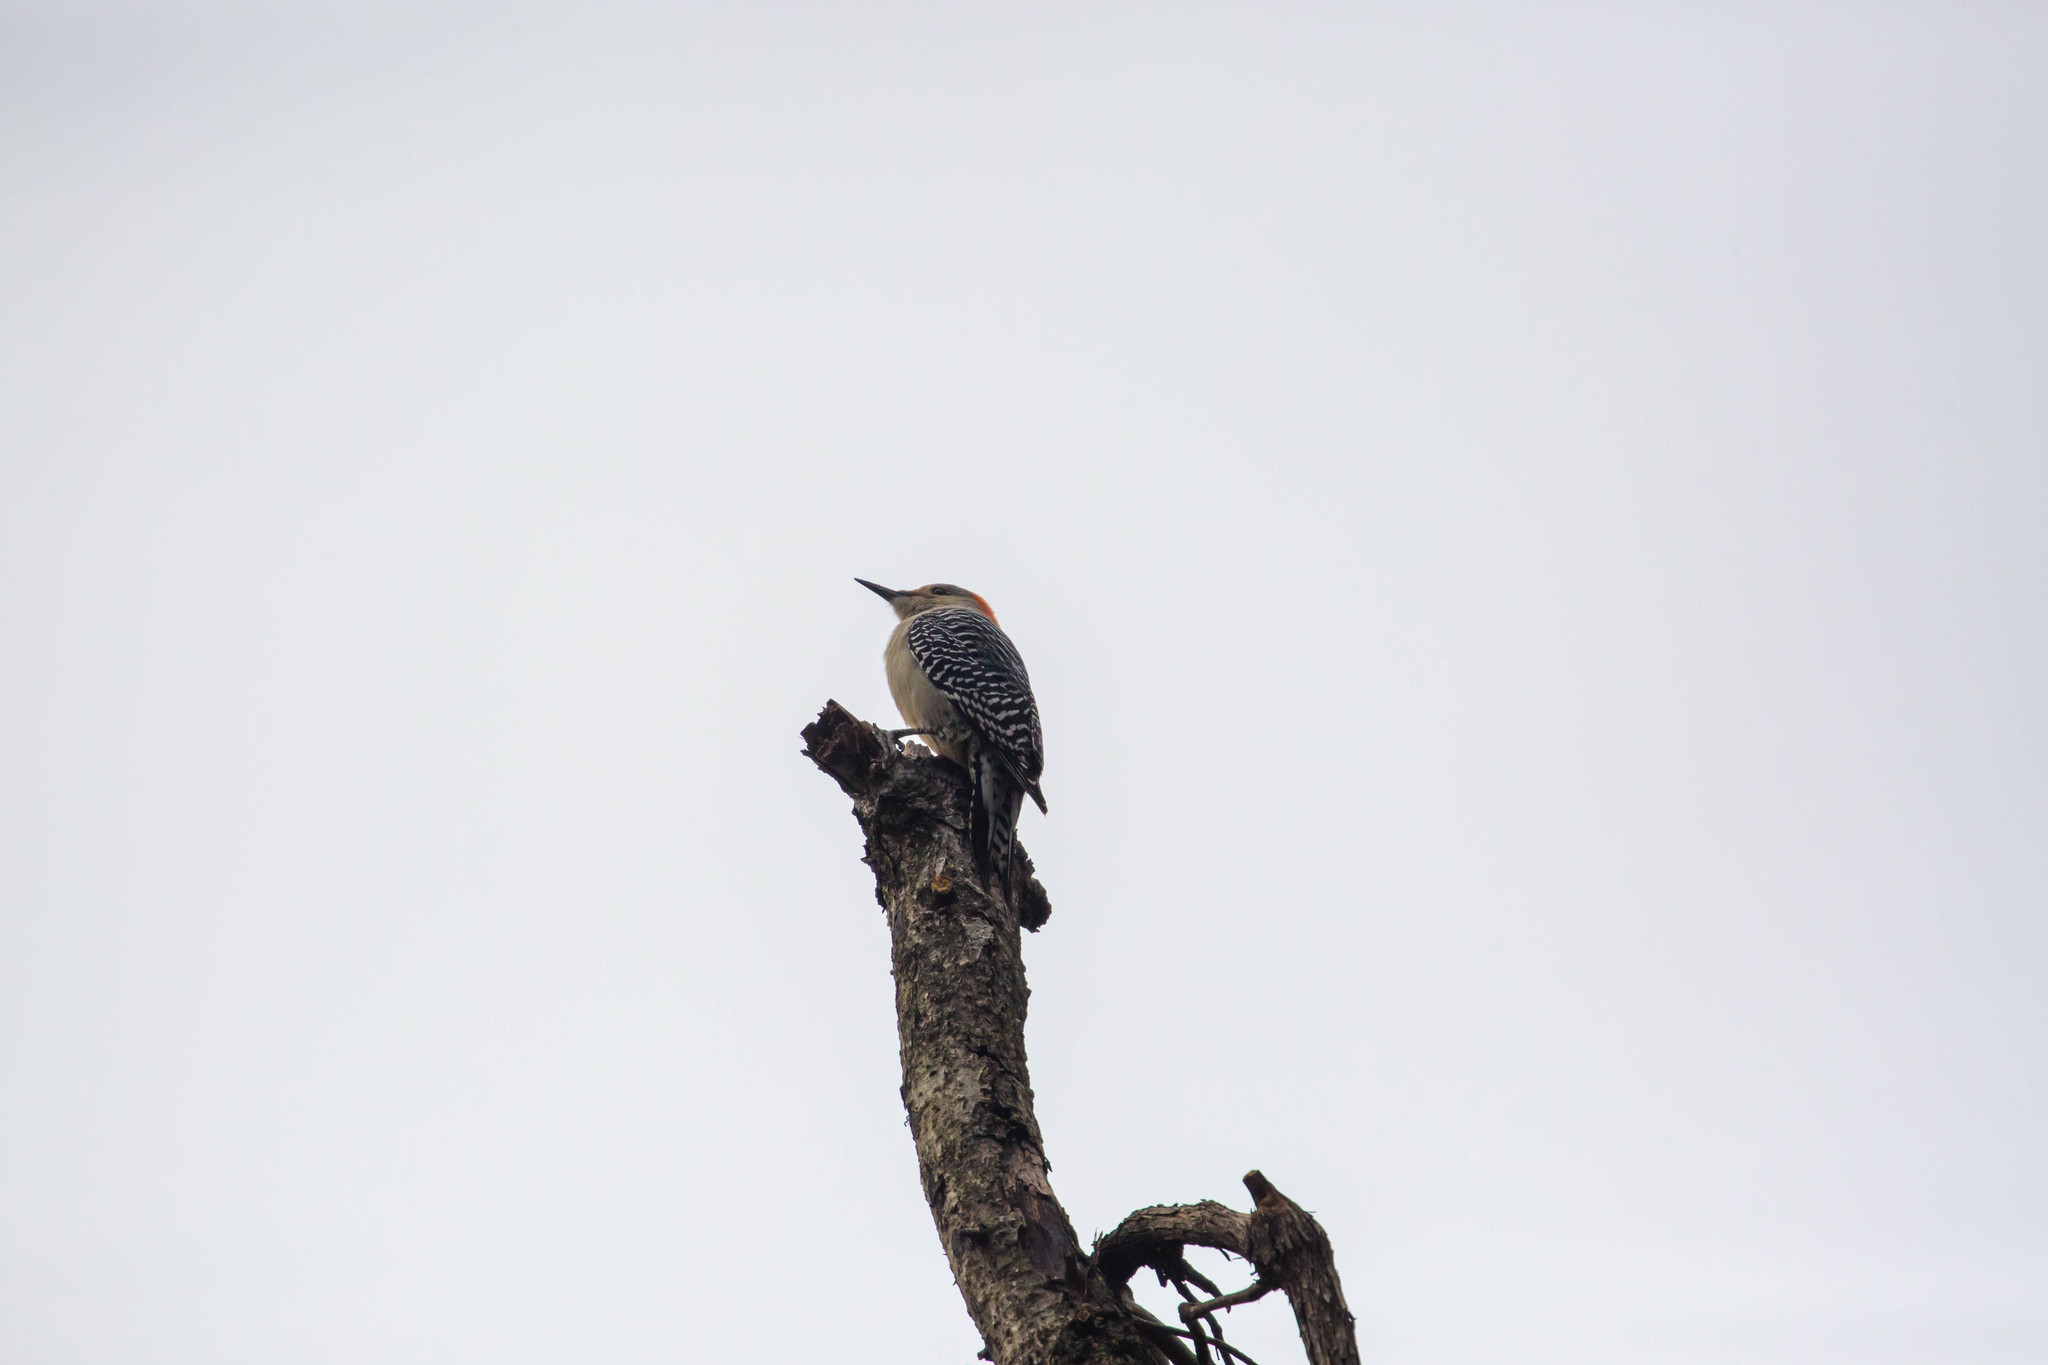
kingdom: Animalia
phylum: Chordata
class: Aves
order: Piciformes
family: Picidae
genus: Melanerpes
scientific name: Melanerpes carolinus
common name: Red-bellied woodpecker
